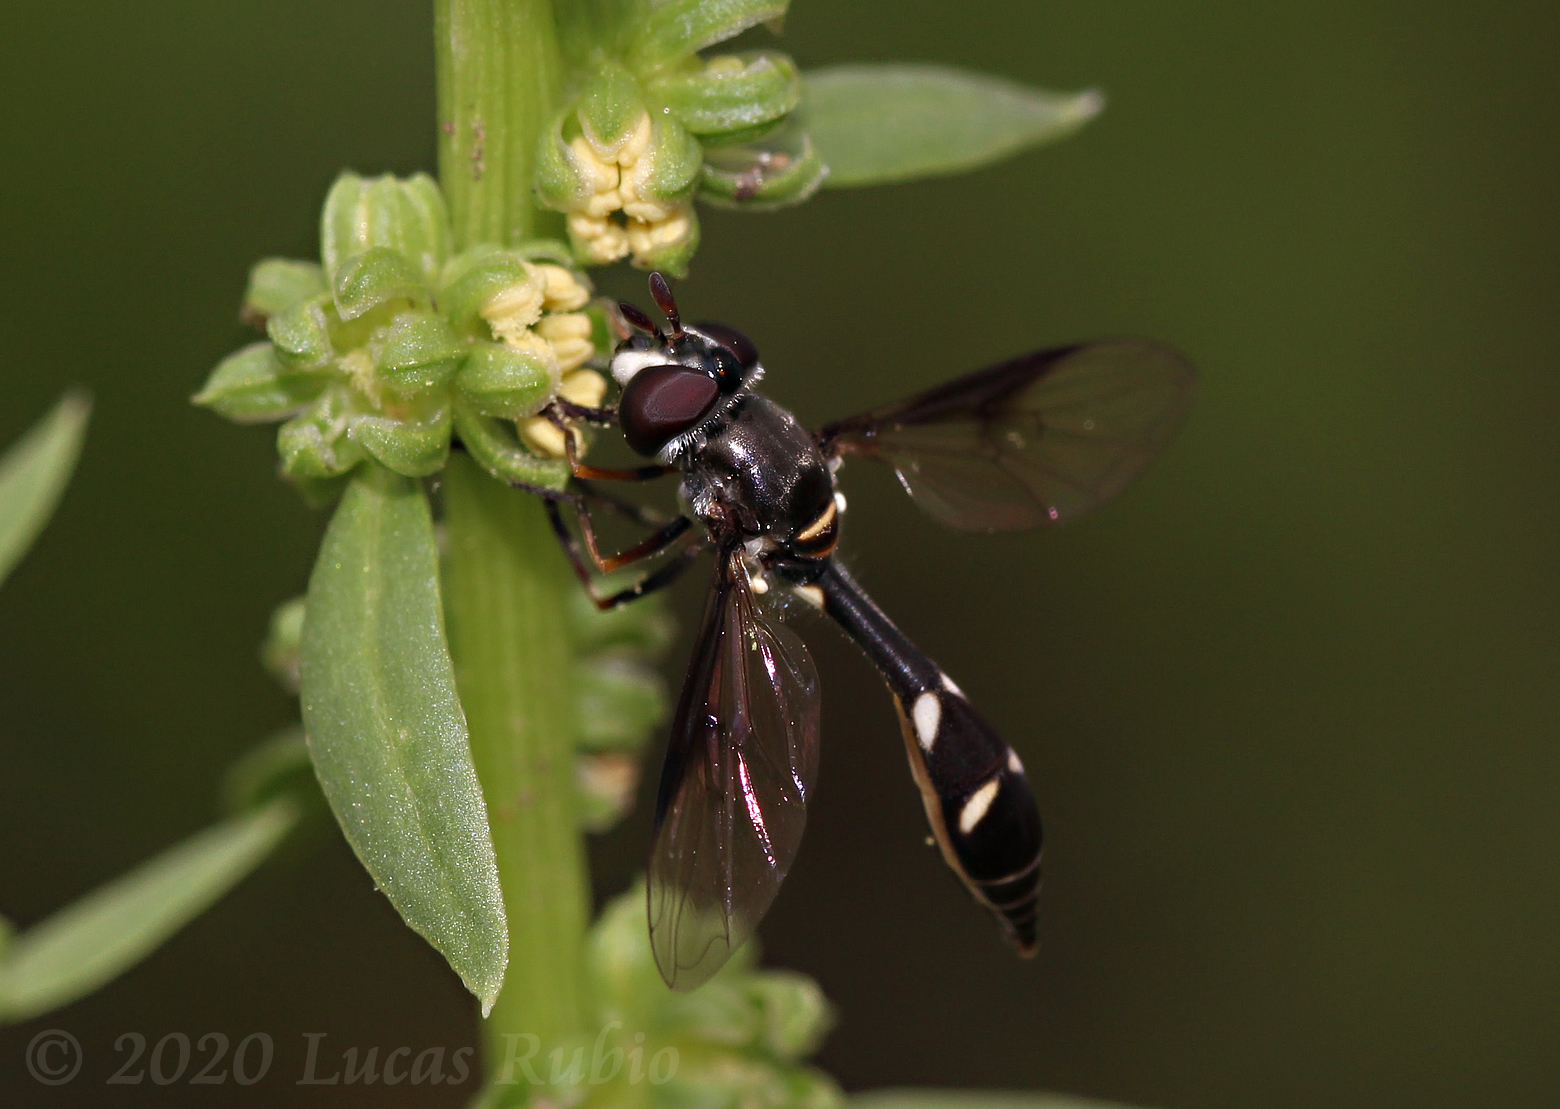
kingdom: Animalia
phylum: Arthropoda
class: Insecta
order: Diptera
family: Syrphidae
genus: Dioprosopa
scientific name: Dioprosopa clavatus
